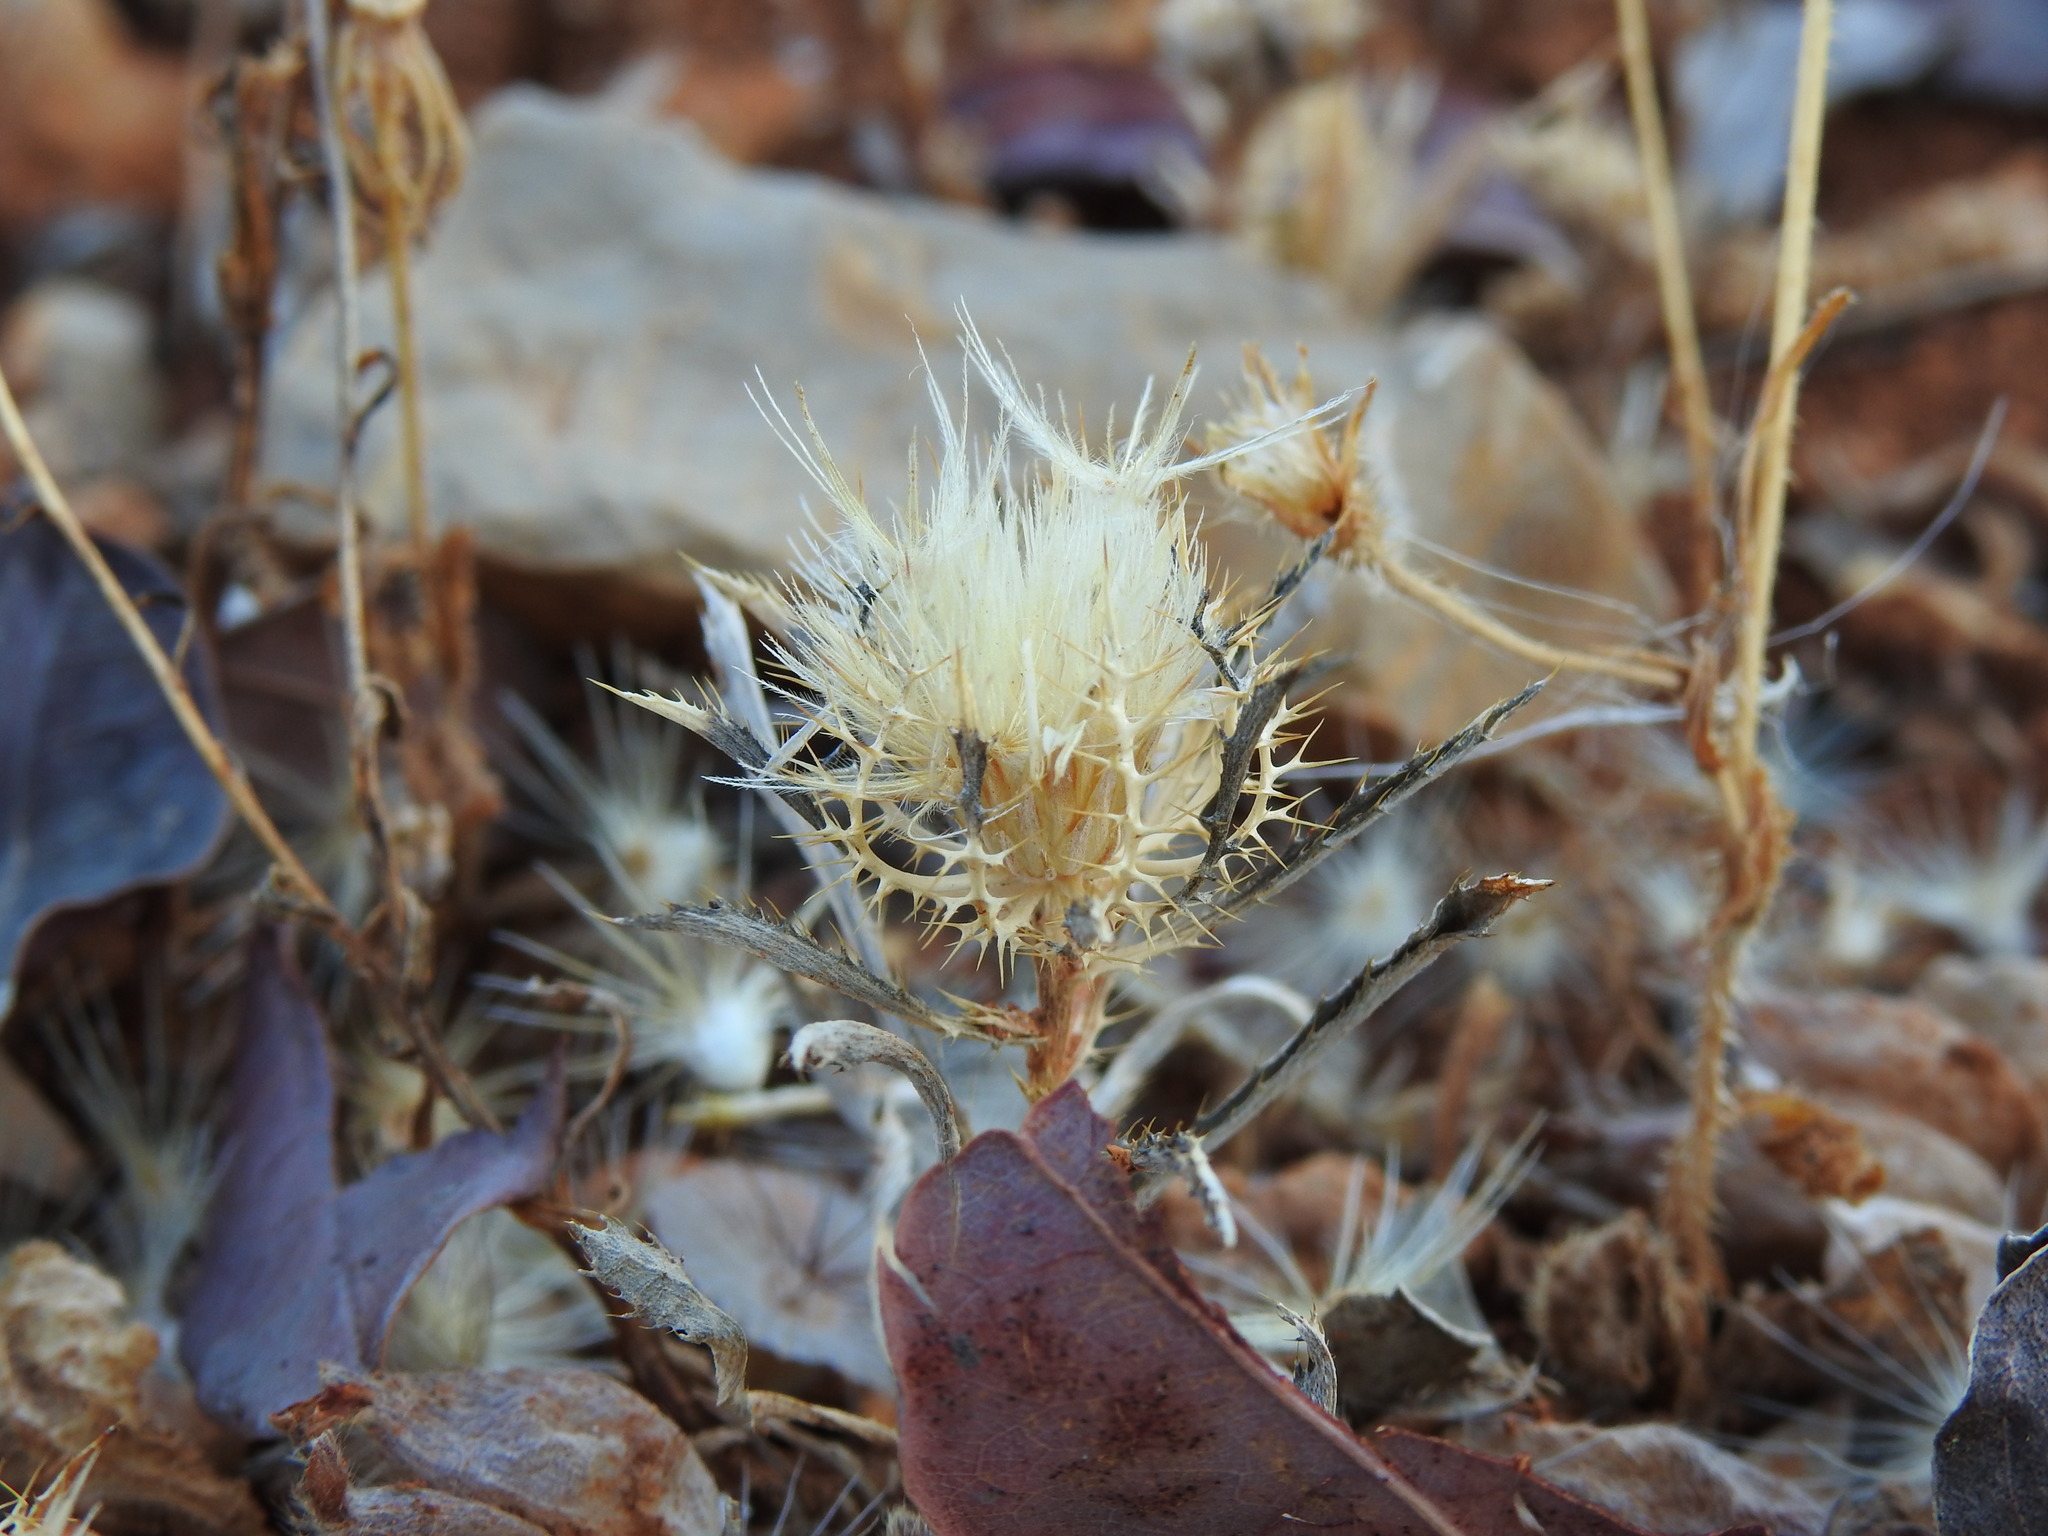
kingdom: Plantae
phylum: Tracheophyta
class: Magnoliopsida
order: Asterales
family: Asteraceae
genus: Atractylis
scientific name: Atractylis cancellata
